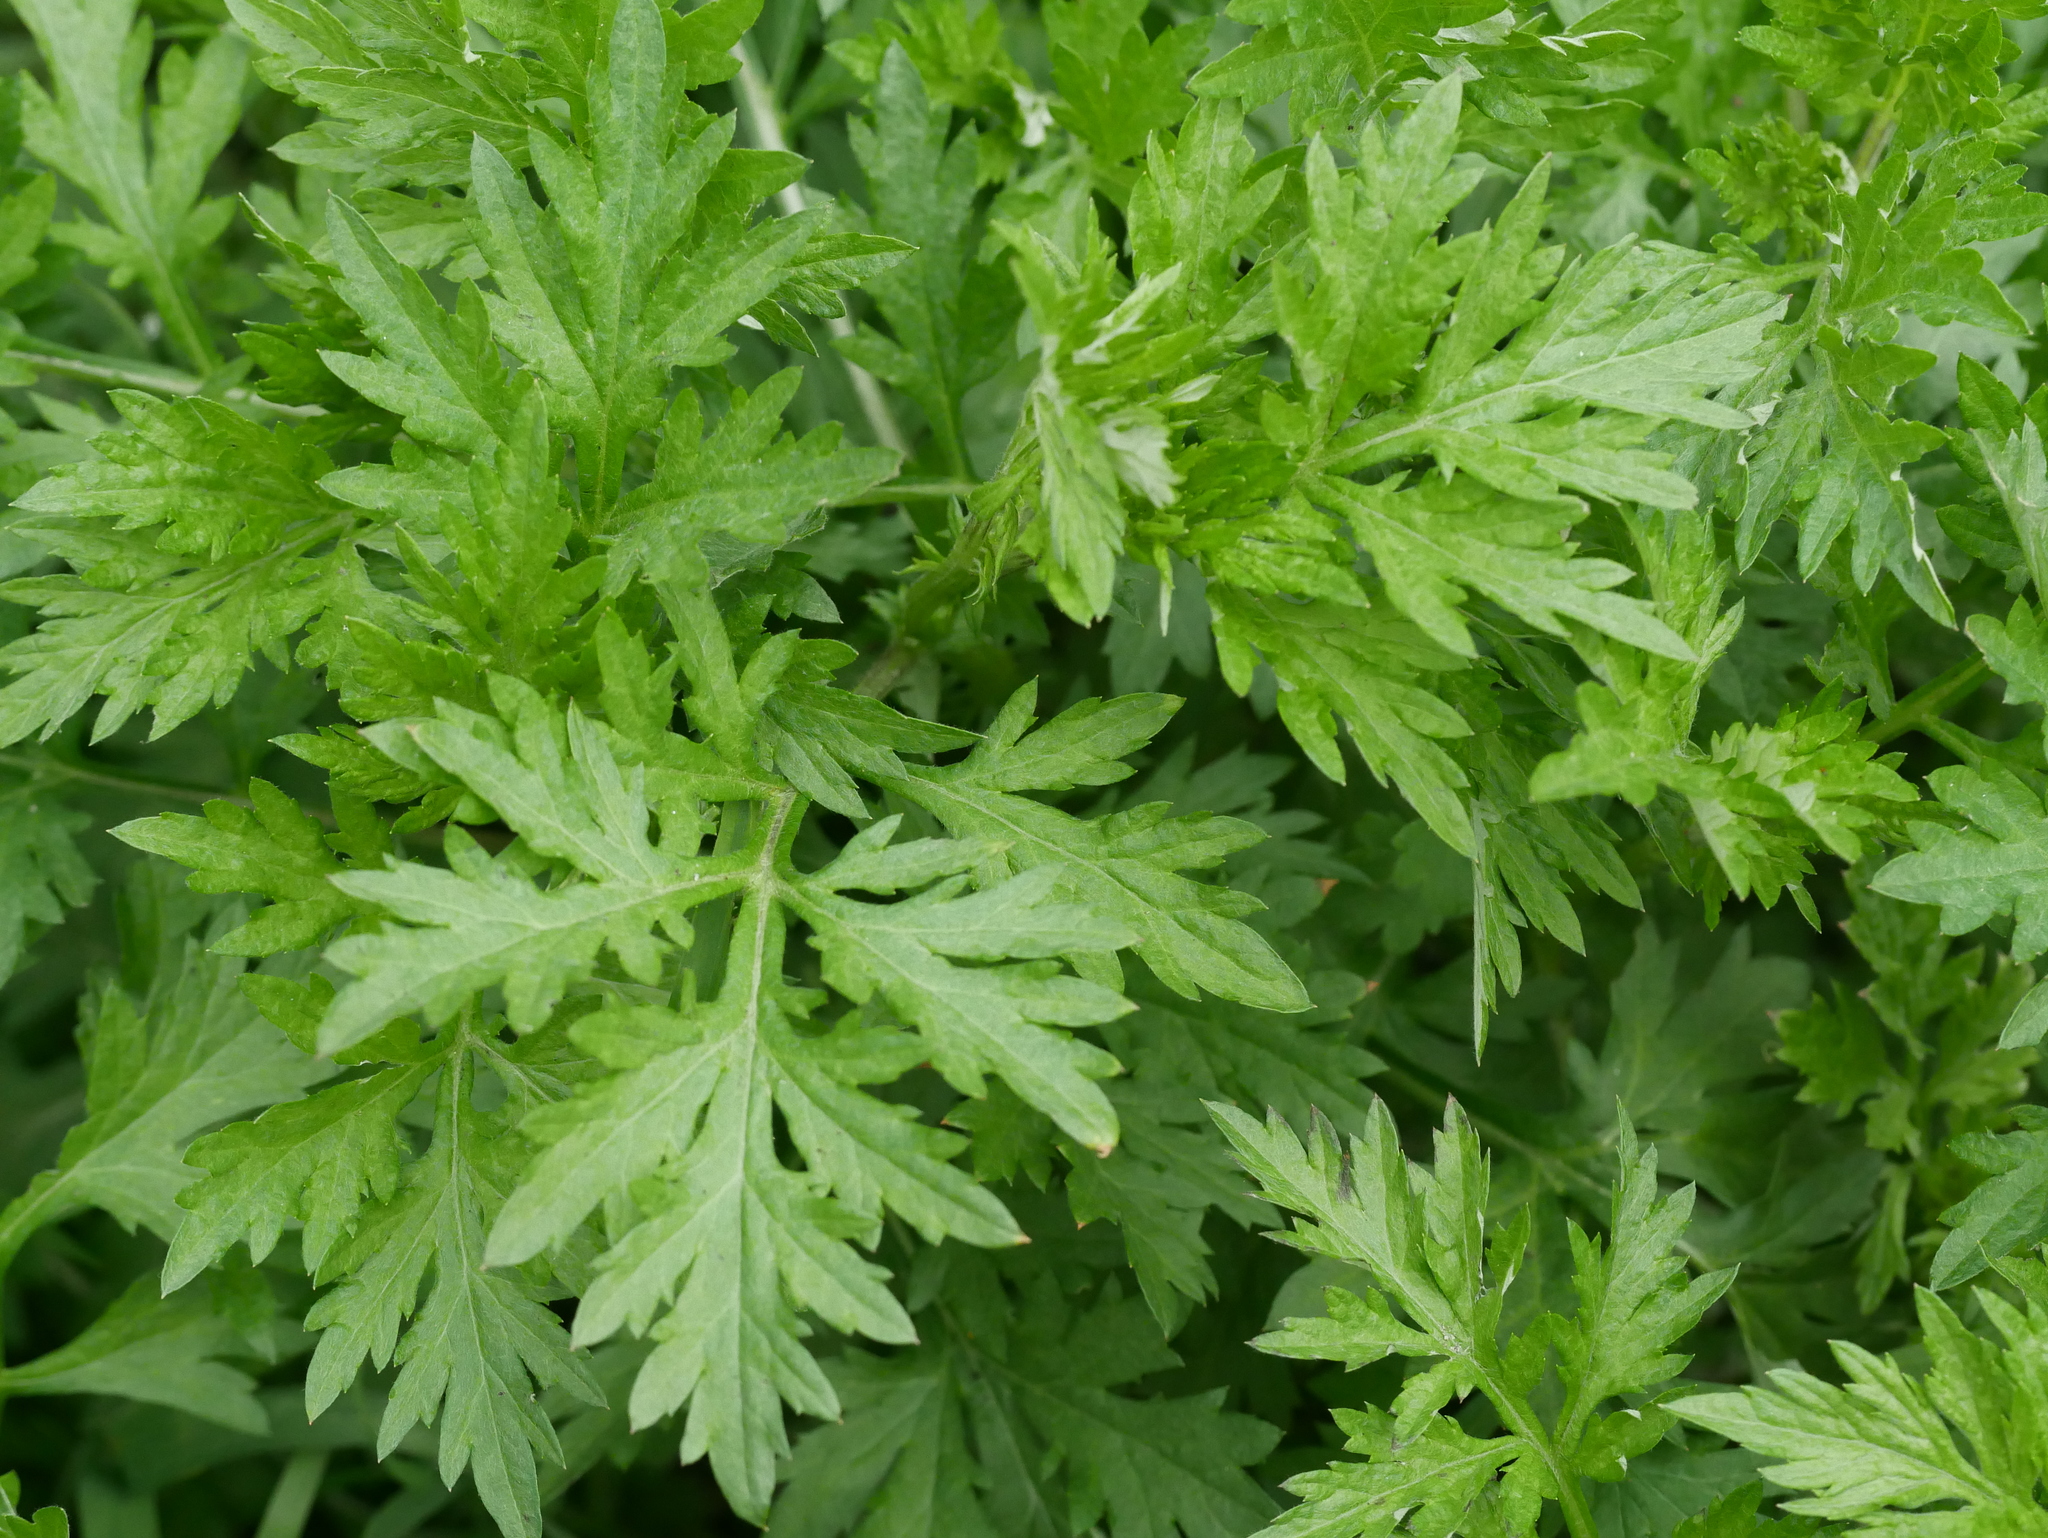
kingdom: Plantae
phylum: Tracheophyta
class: Magnoliopsida
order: Asterales
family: Asteraceae
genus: Artemisia
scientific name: Artemisia vulgaris
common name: Mugwort
